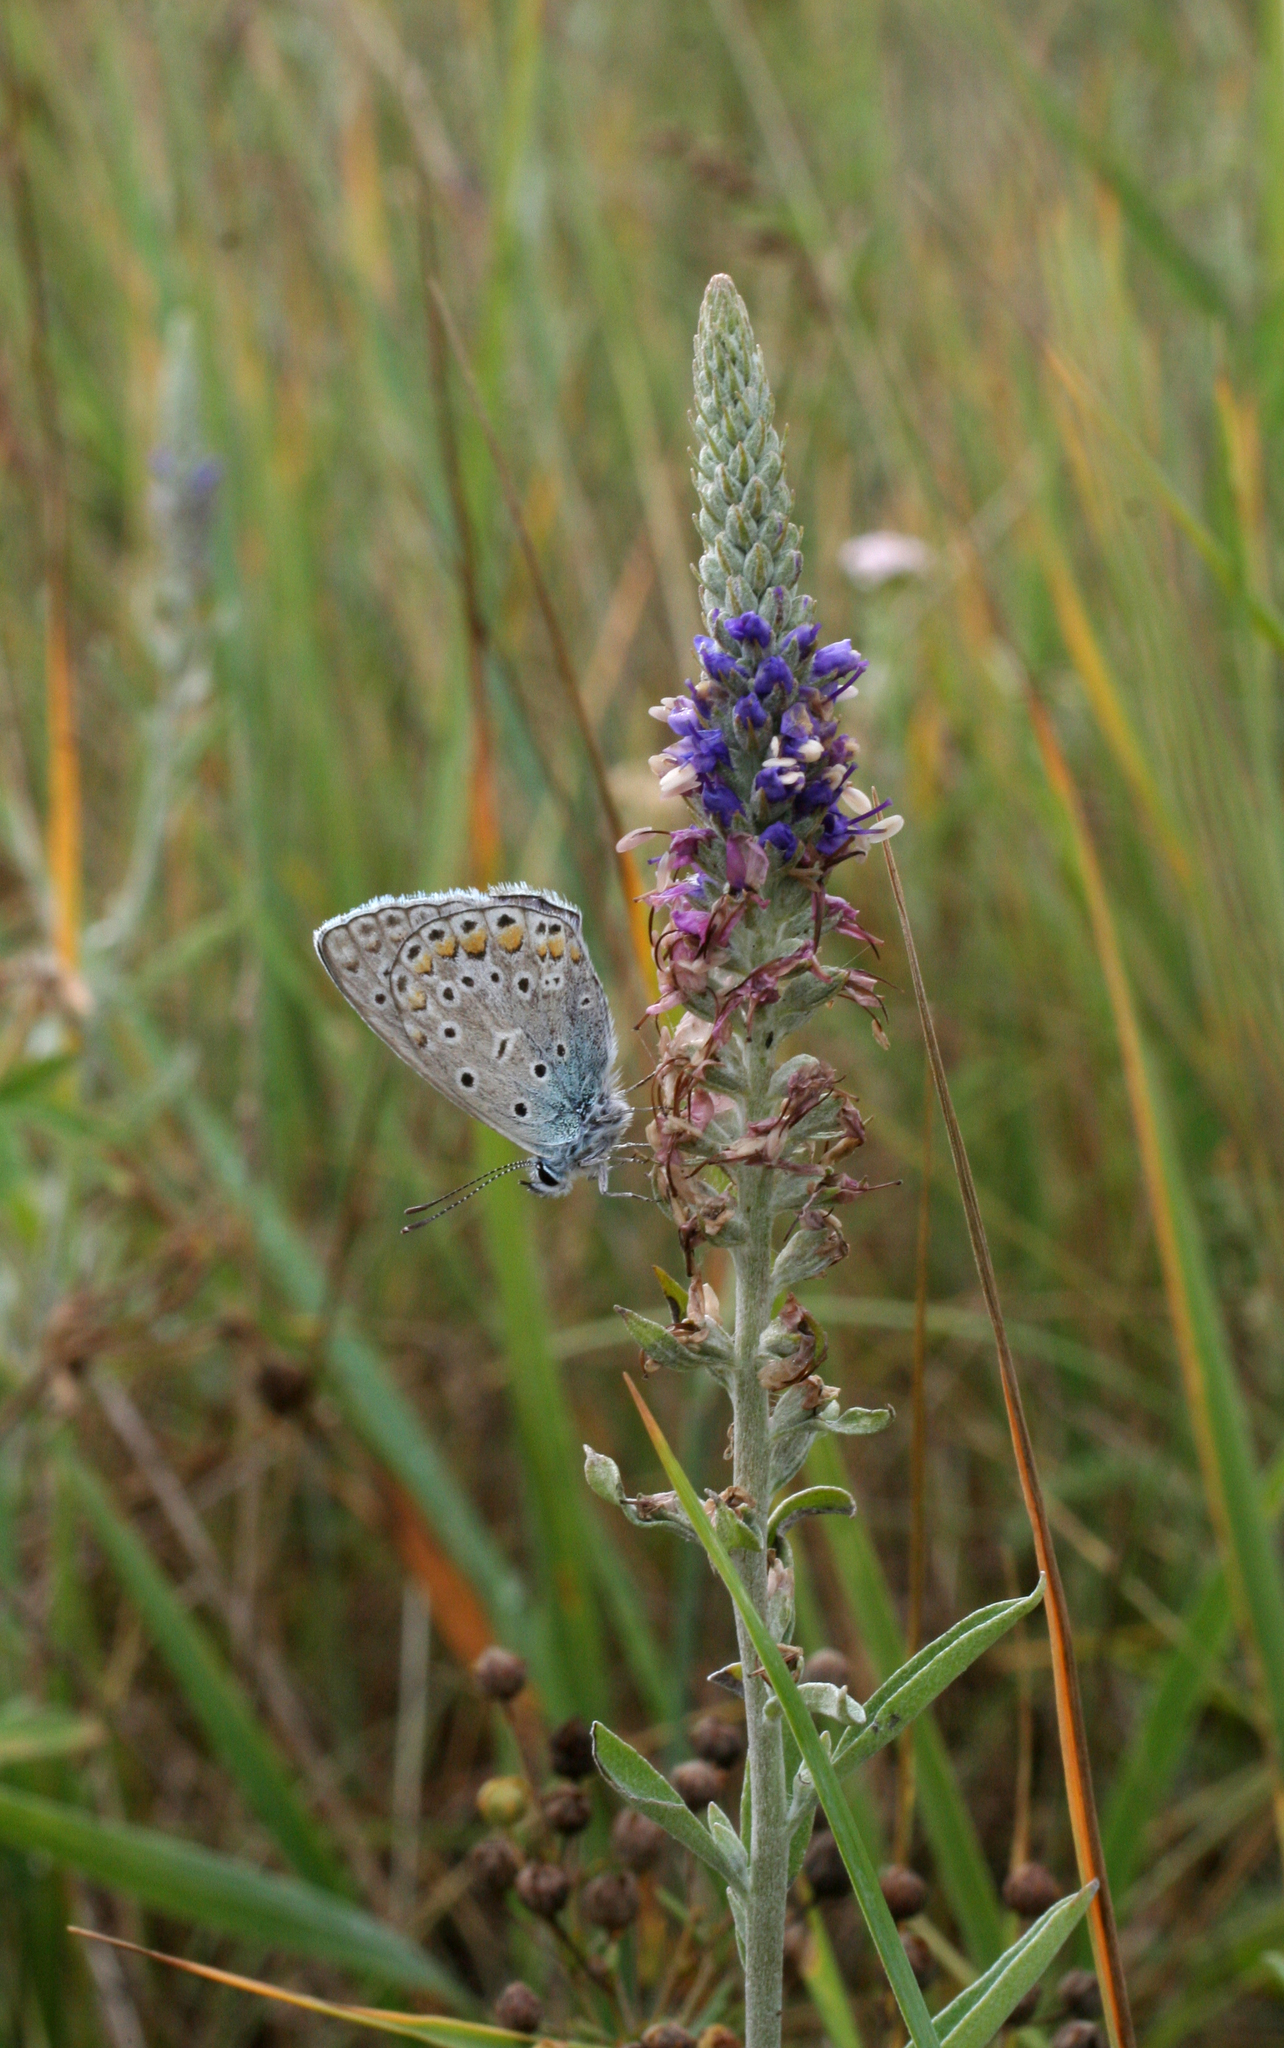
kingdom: Plantae
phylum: Tracheophyta
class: Magnoliopsida
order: Lamiales
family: Plantaginaceae
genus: Veronica
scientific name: Veronica incana
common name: Silver speedwell
